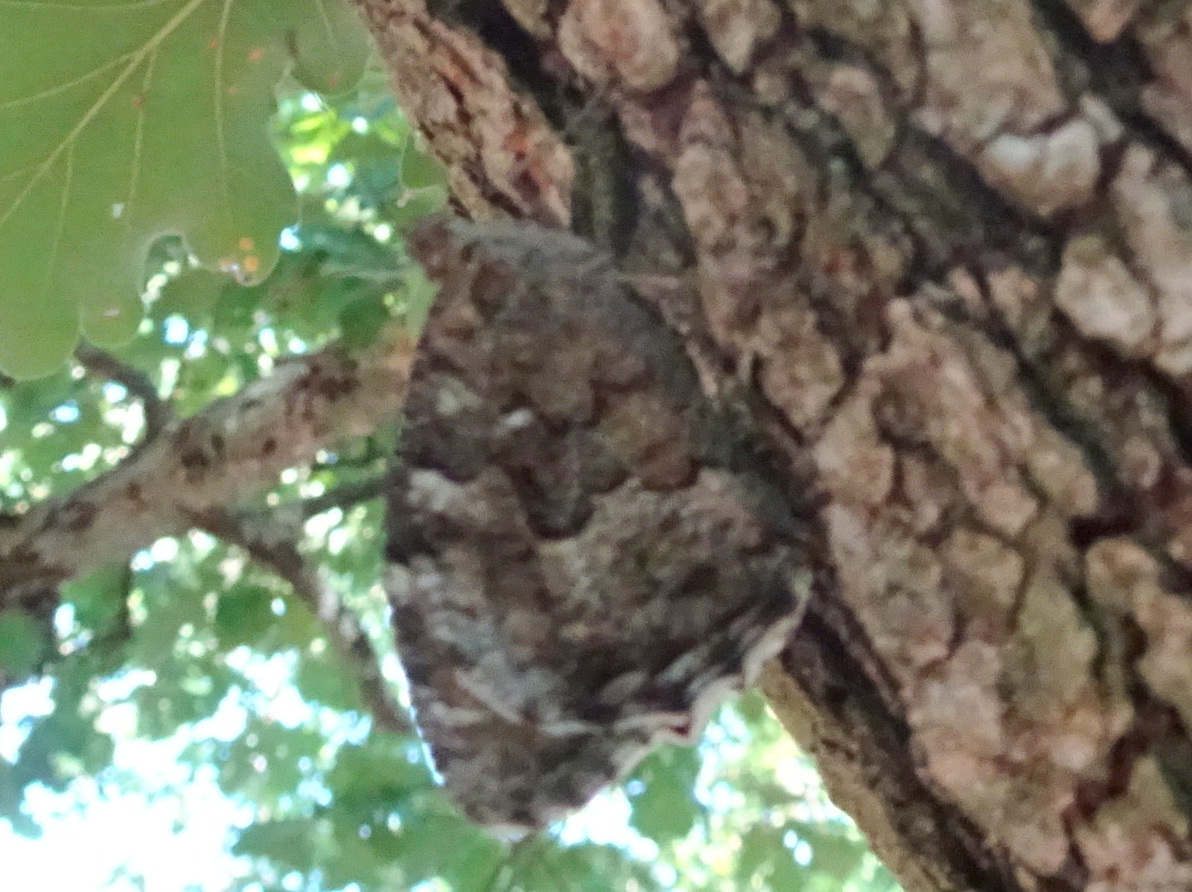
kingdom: Animalia
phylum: Arthropoda
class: Insecta
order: Lepidoptera
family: Nymphalidae
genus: Hipparchia
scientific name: Hipparchia semele
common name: Grayling
